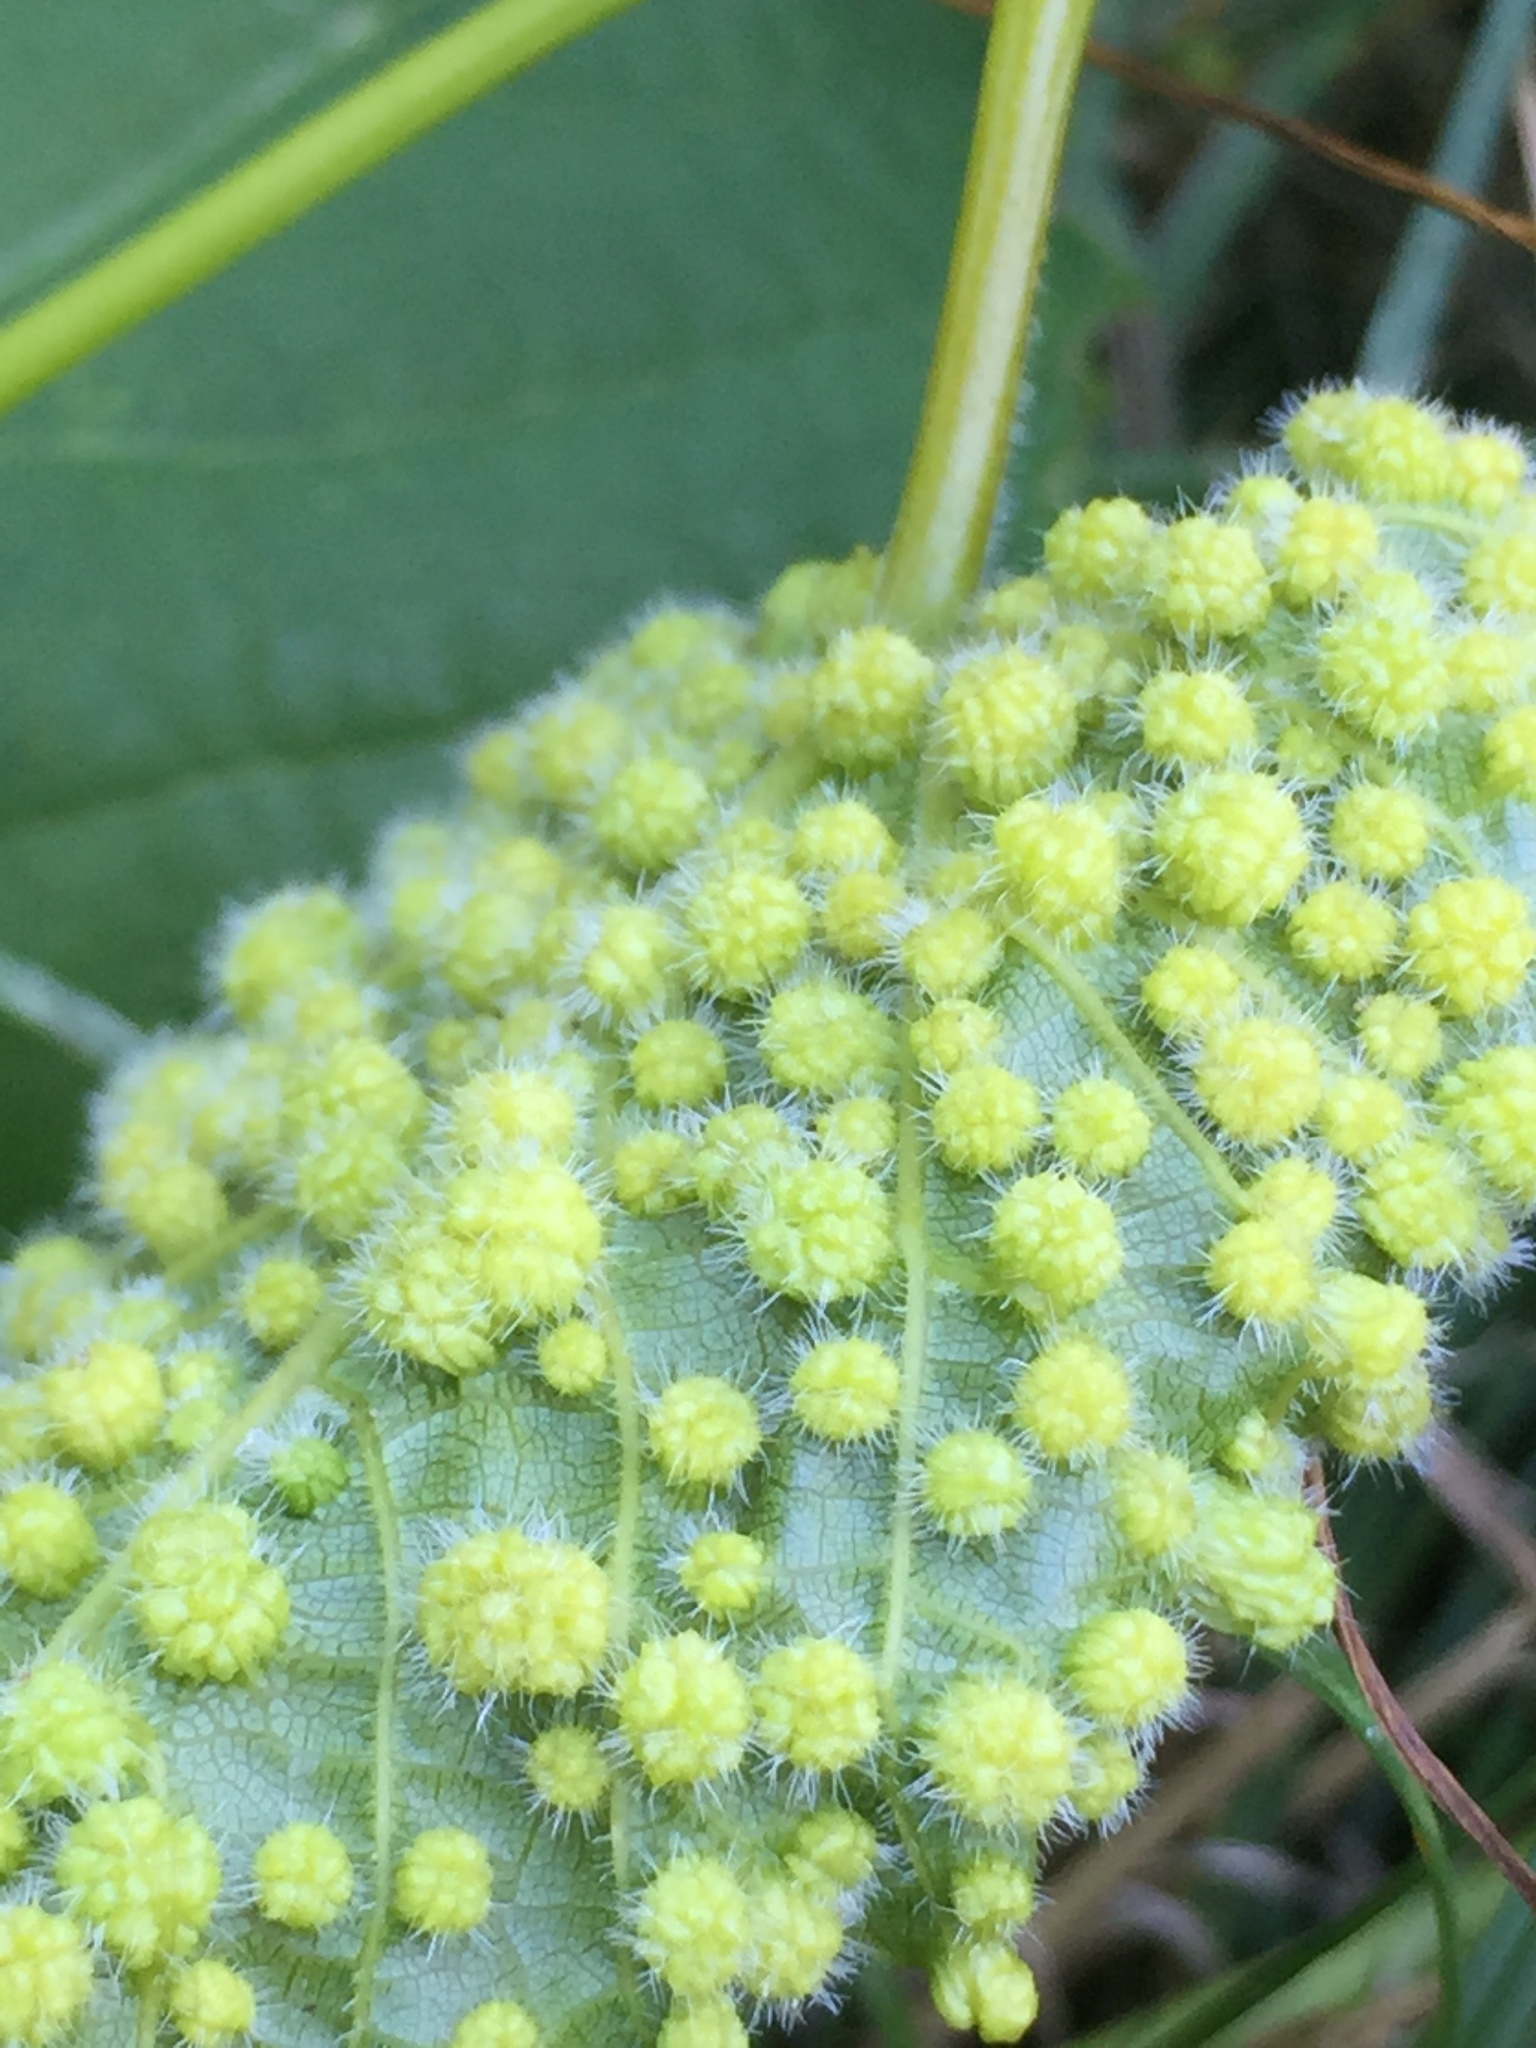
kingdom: Animalia
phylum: Arthropoda
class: Insecta
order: Hemiptera
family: Phylloxeridae
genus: Daktulosphaira
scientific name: Daktulosphaira vitifoliae
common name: Grape phylloxera
